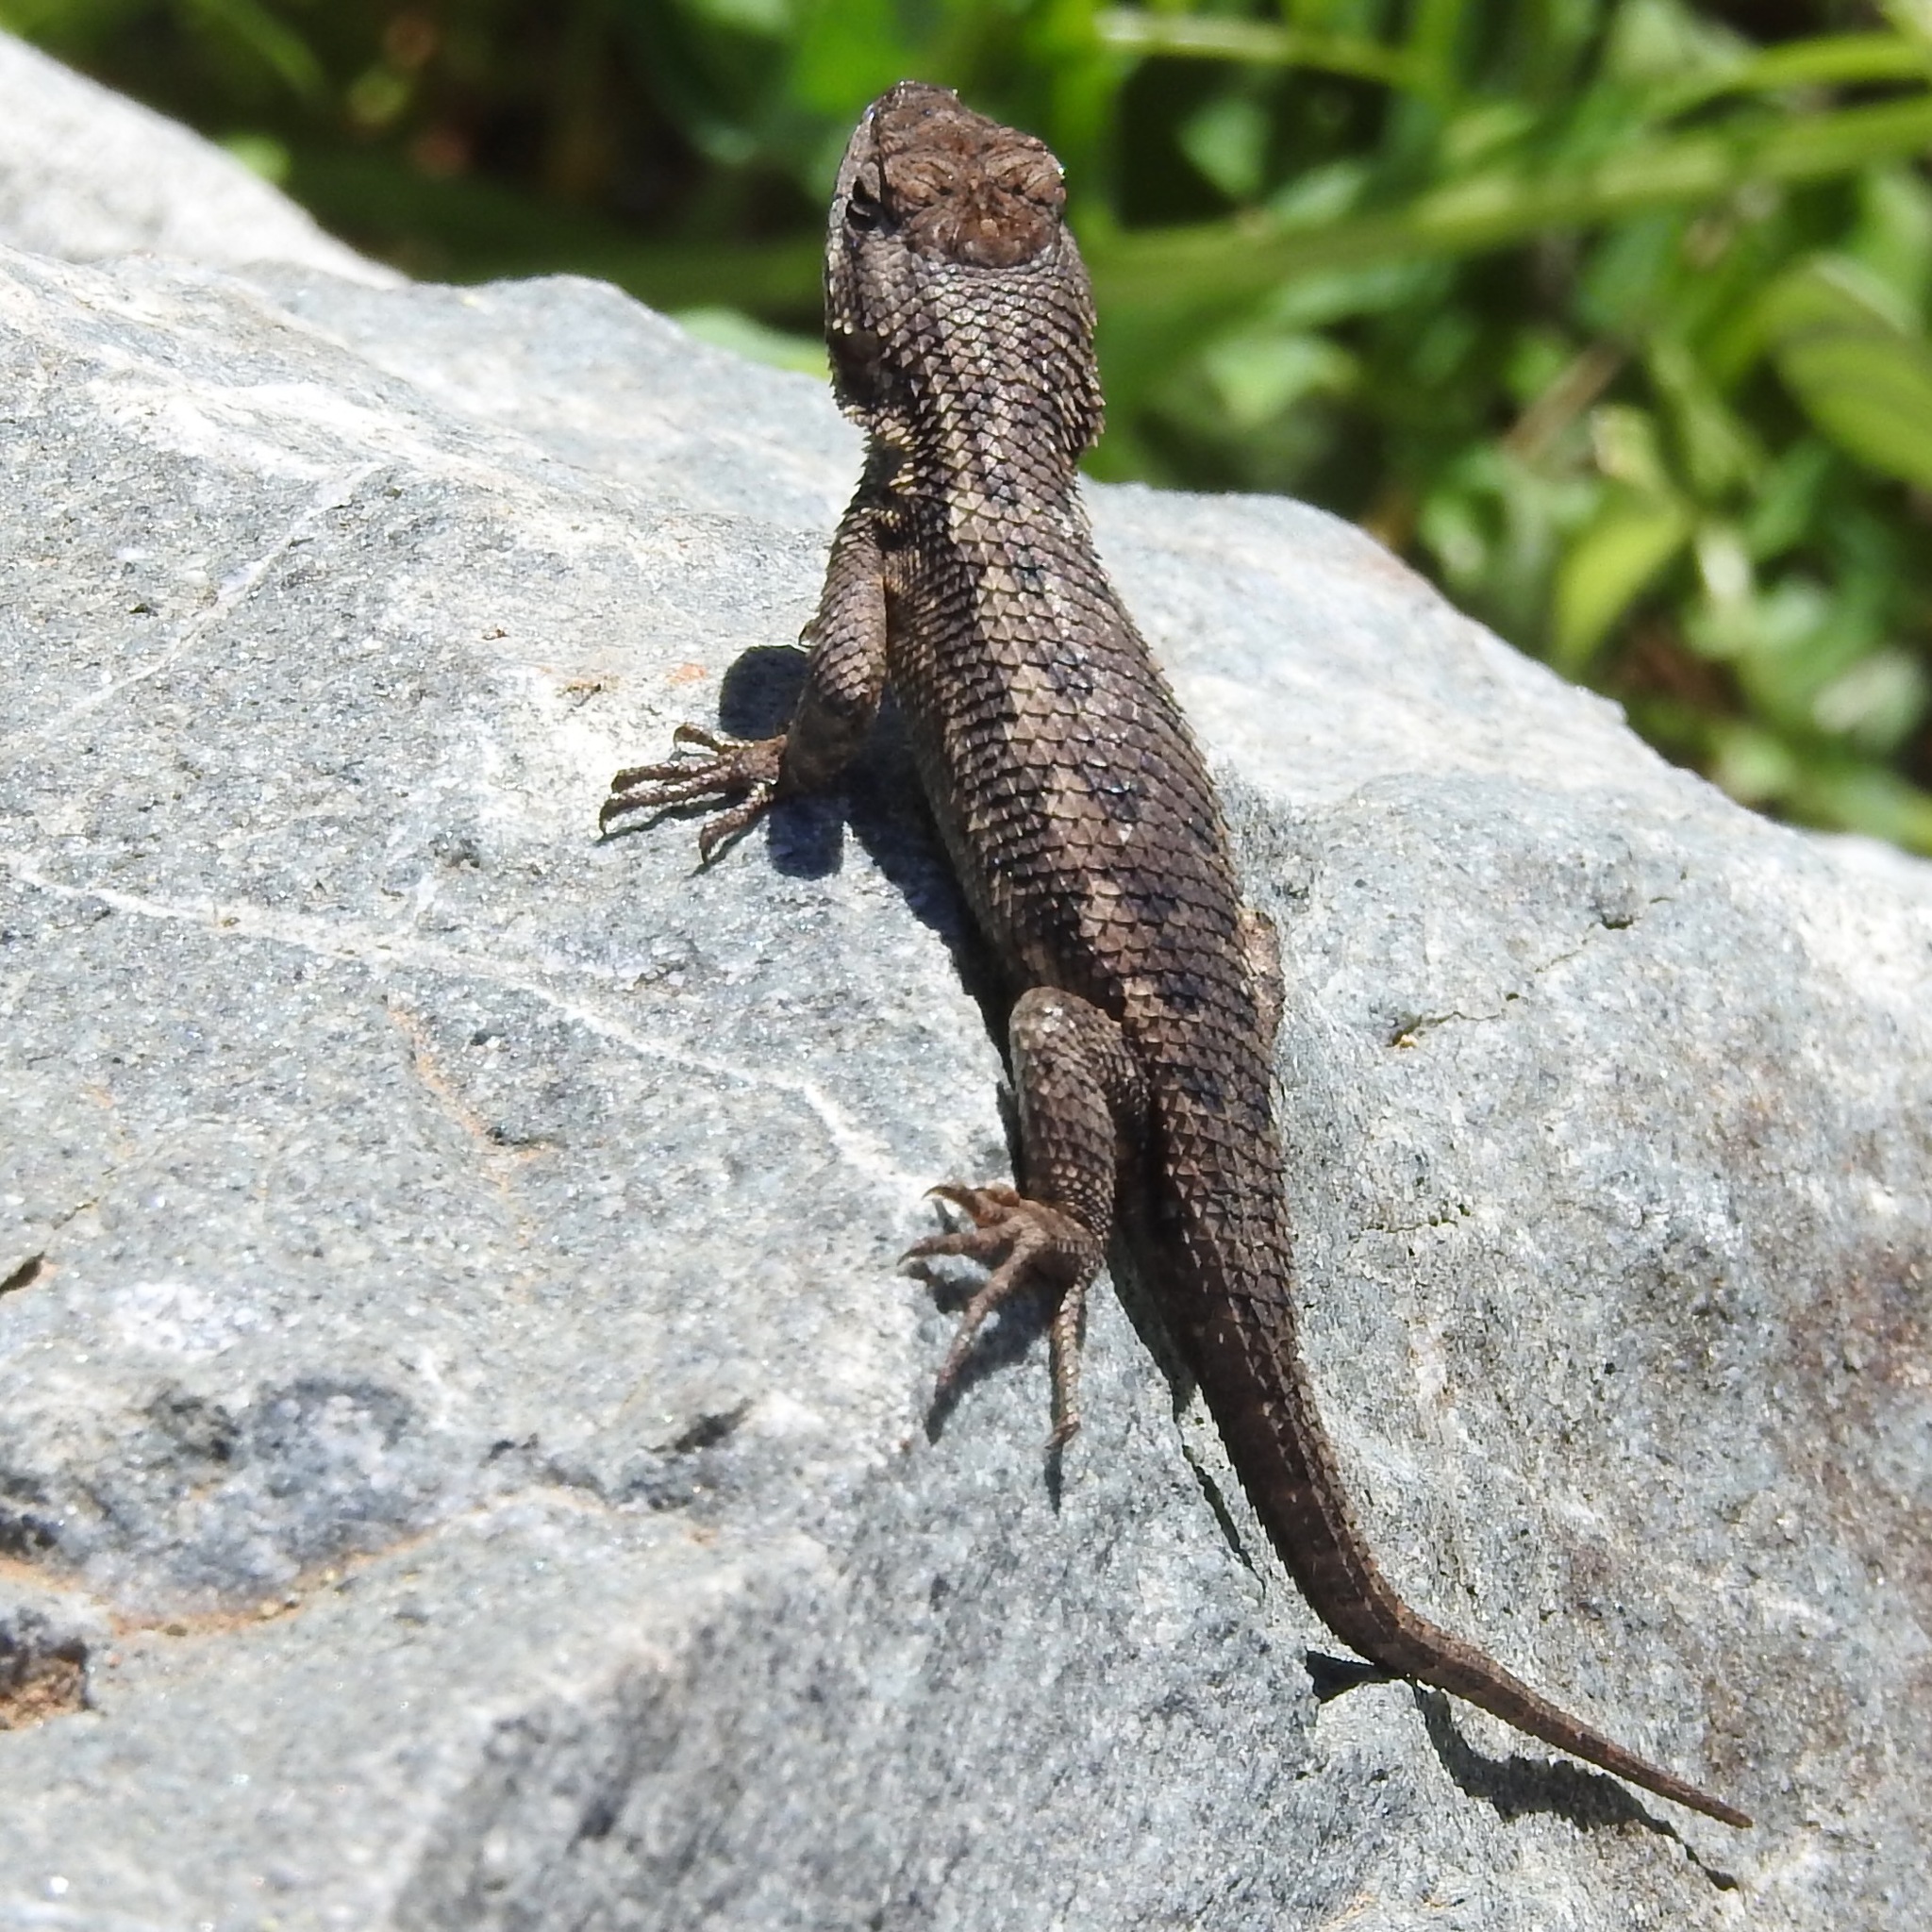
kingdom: Animalia
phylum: Chordata
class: Squamata
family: Phrynosomatidae
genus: Sceloporus
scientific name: Sceloporus occidentalis
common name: Western fence lizard
